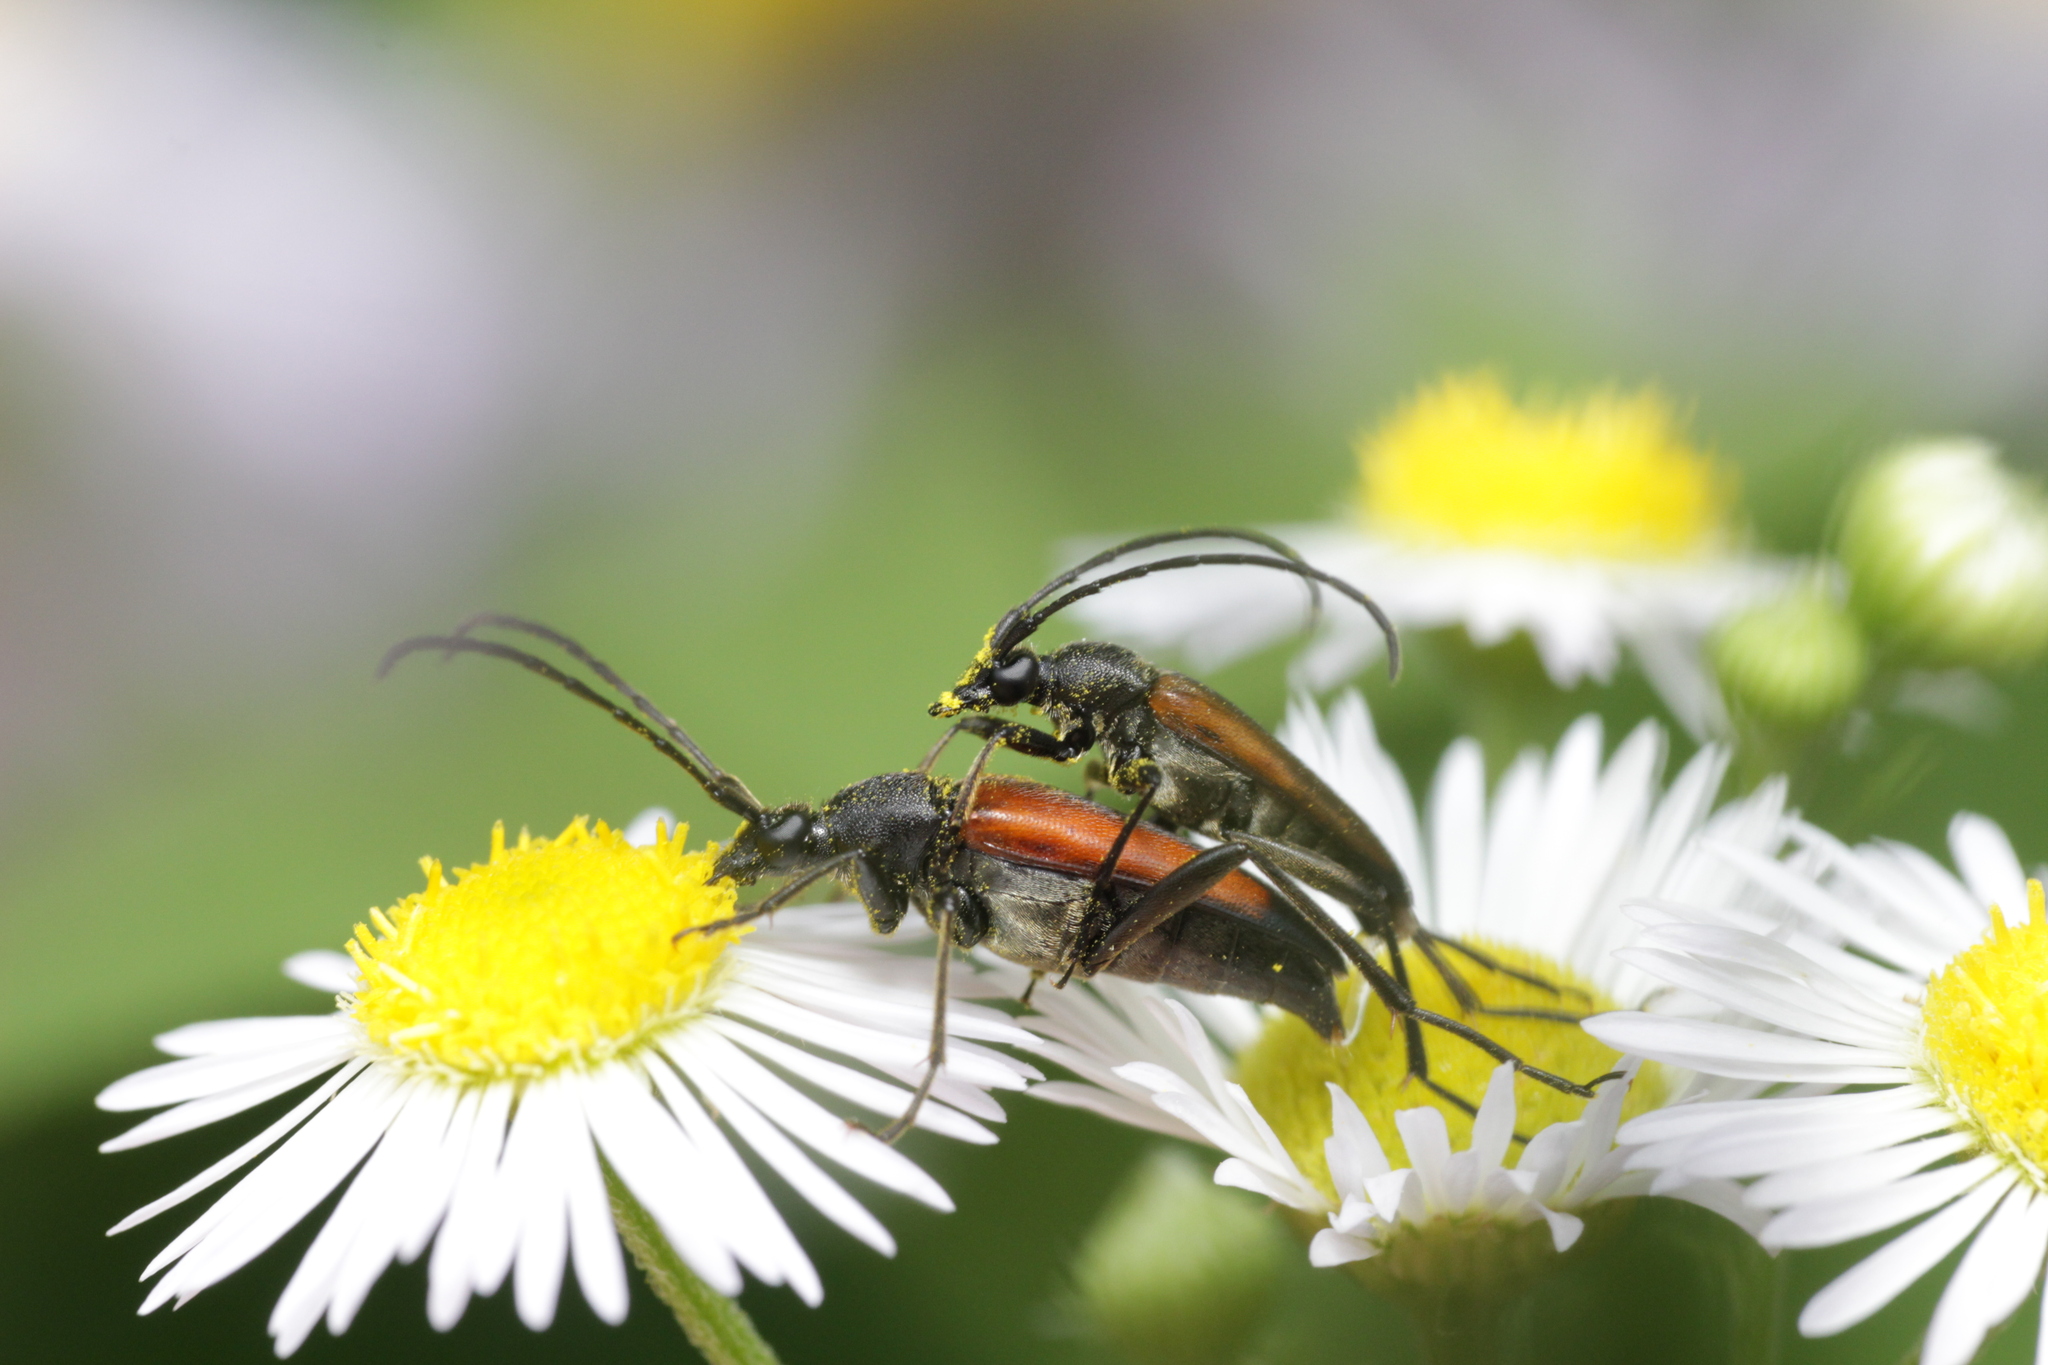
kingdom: Animalia
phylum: Arthropoda
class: Insecta
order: Coleoptera
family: Cerambycidae
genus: Stenurella
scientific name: Stenurella melanura
